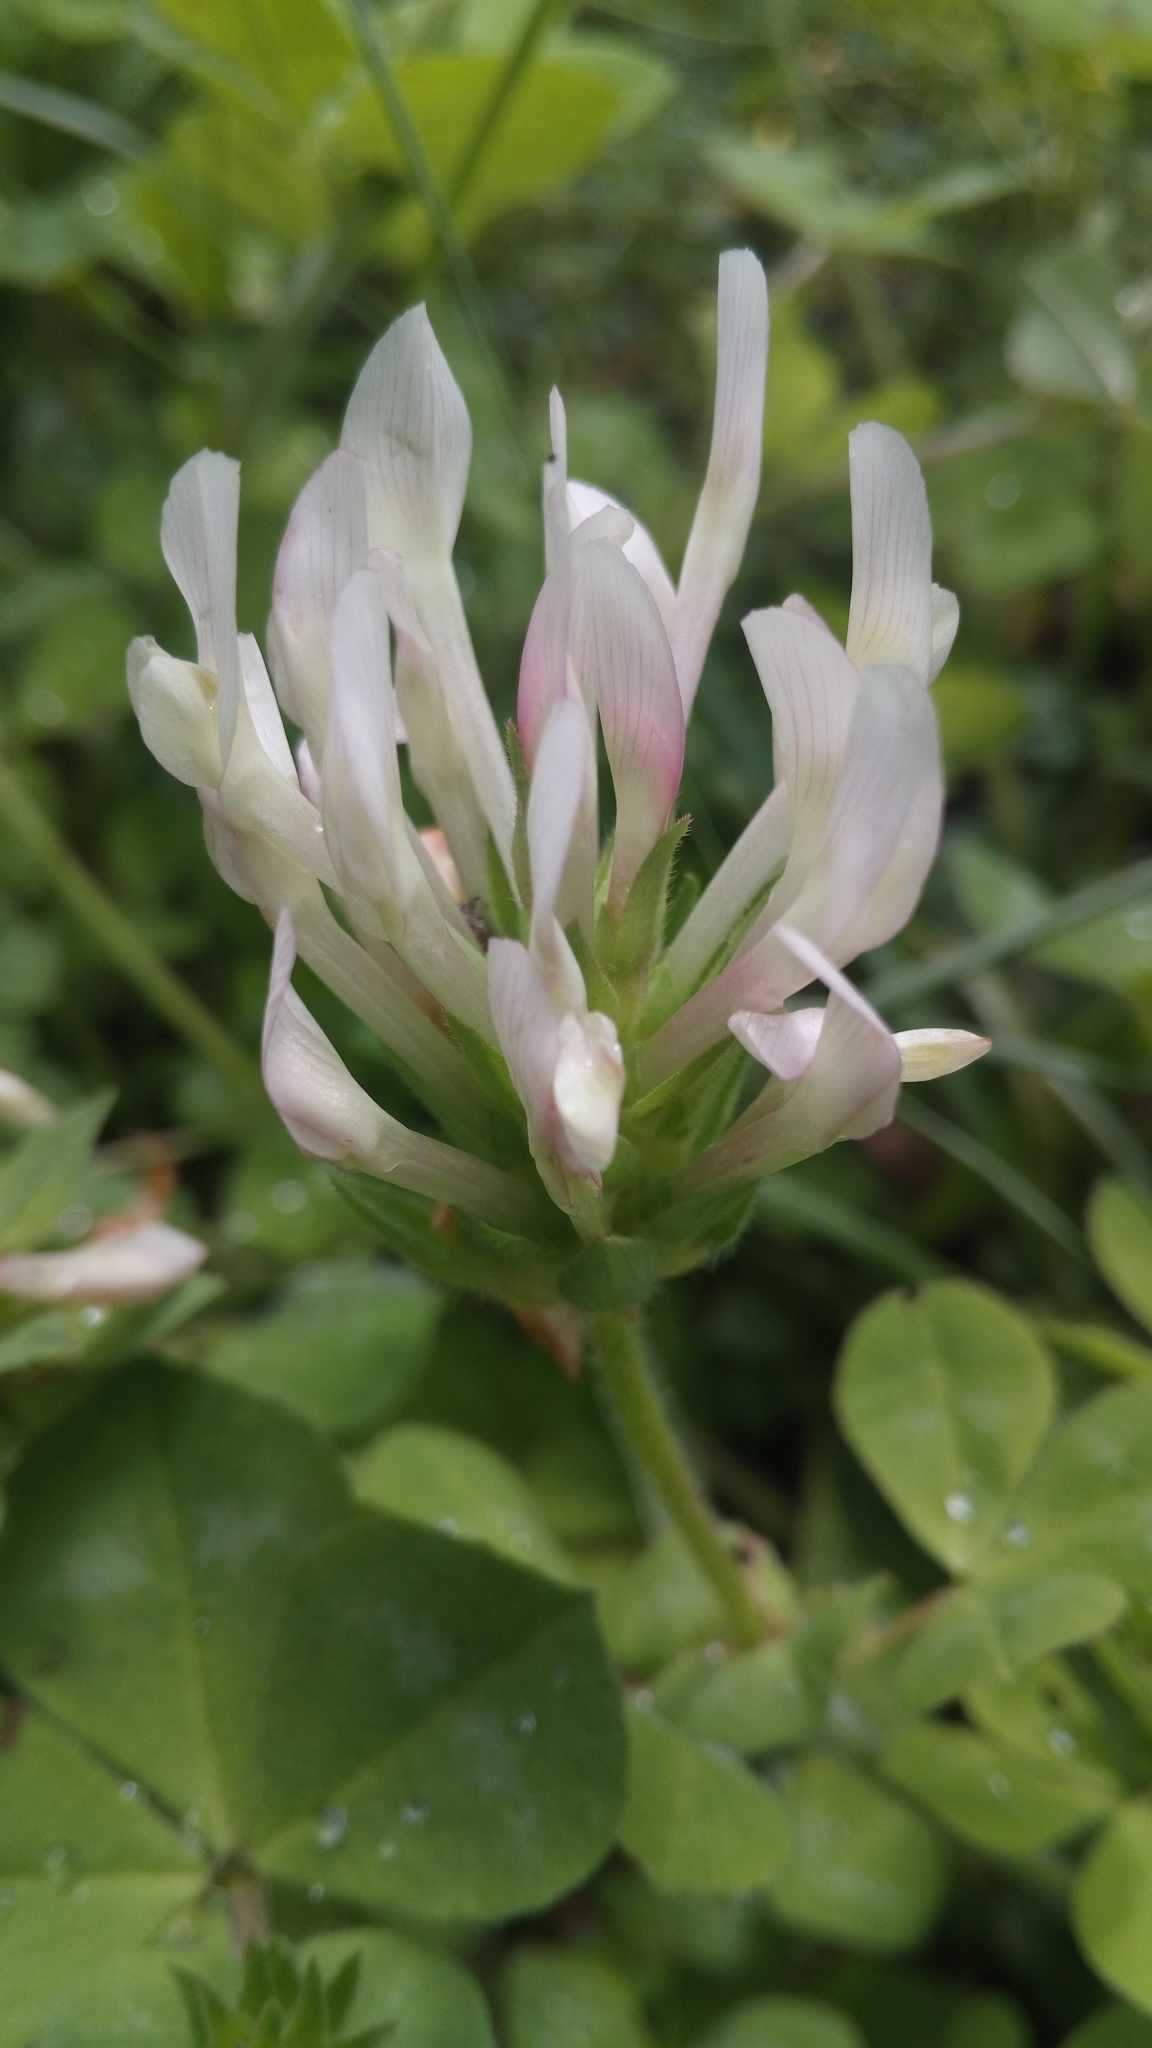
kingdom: Plantae
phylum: Tracheophyta
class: Magnoliopsida
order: Fabales
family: Fabaceae
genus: Trifolium
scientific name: Trifolium clypeatum
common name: Shield clover
